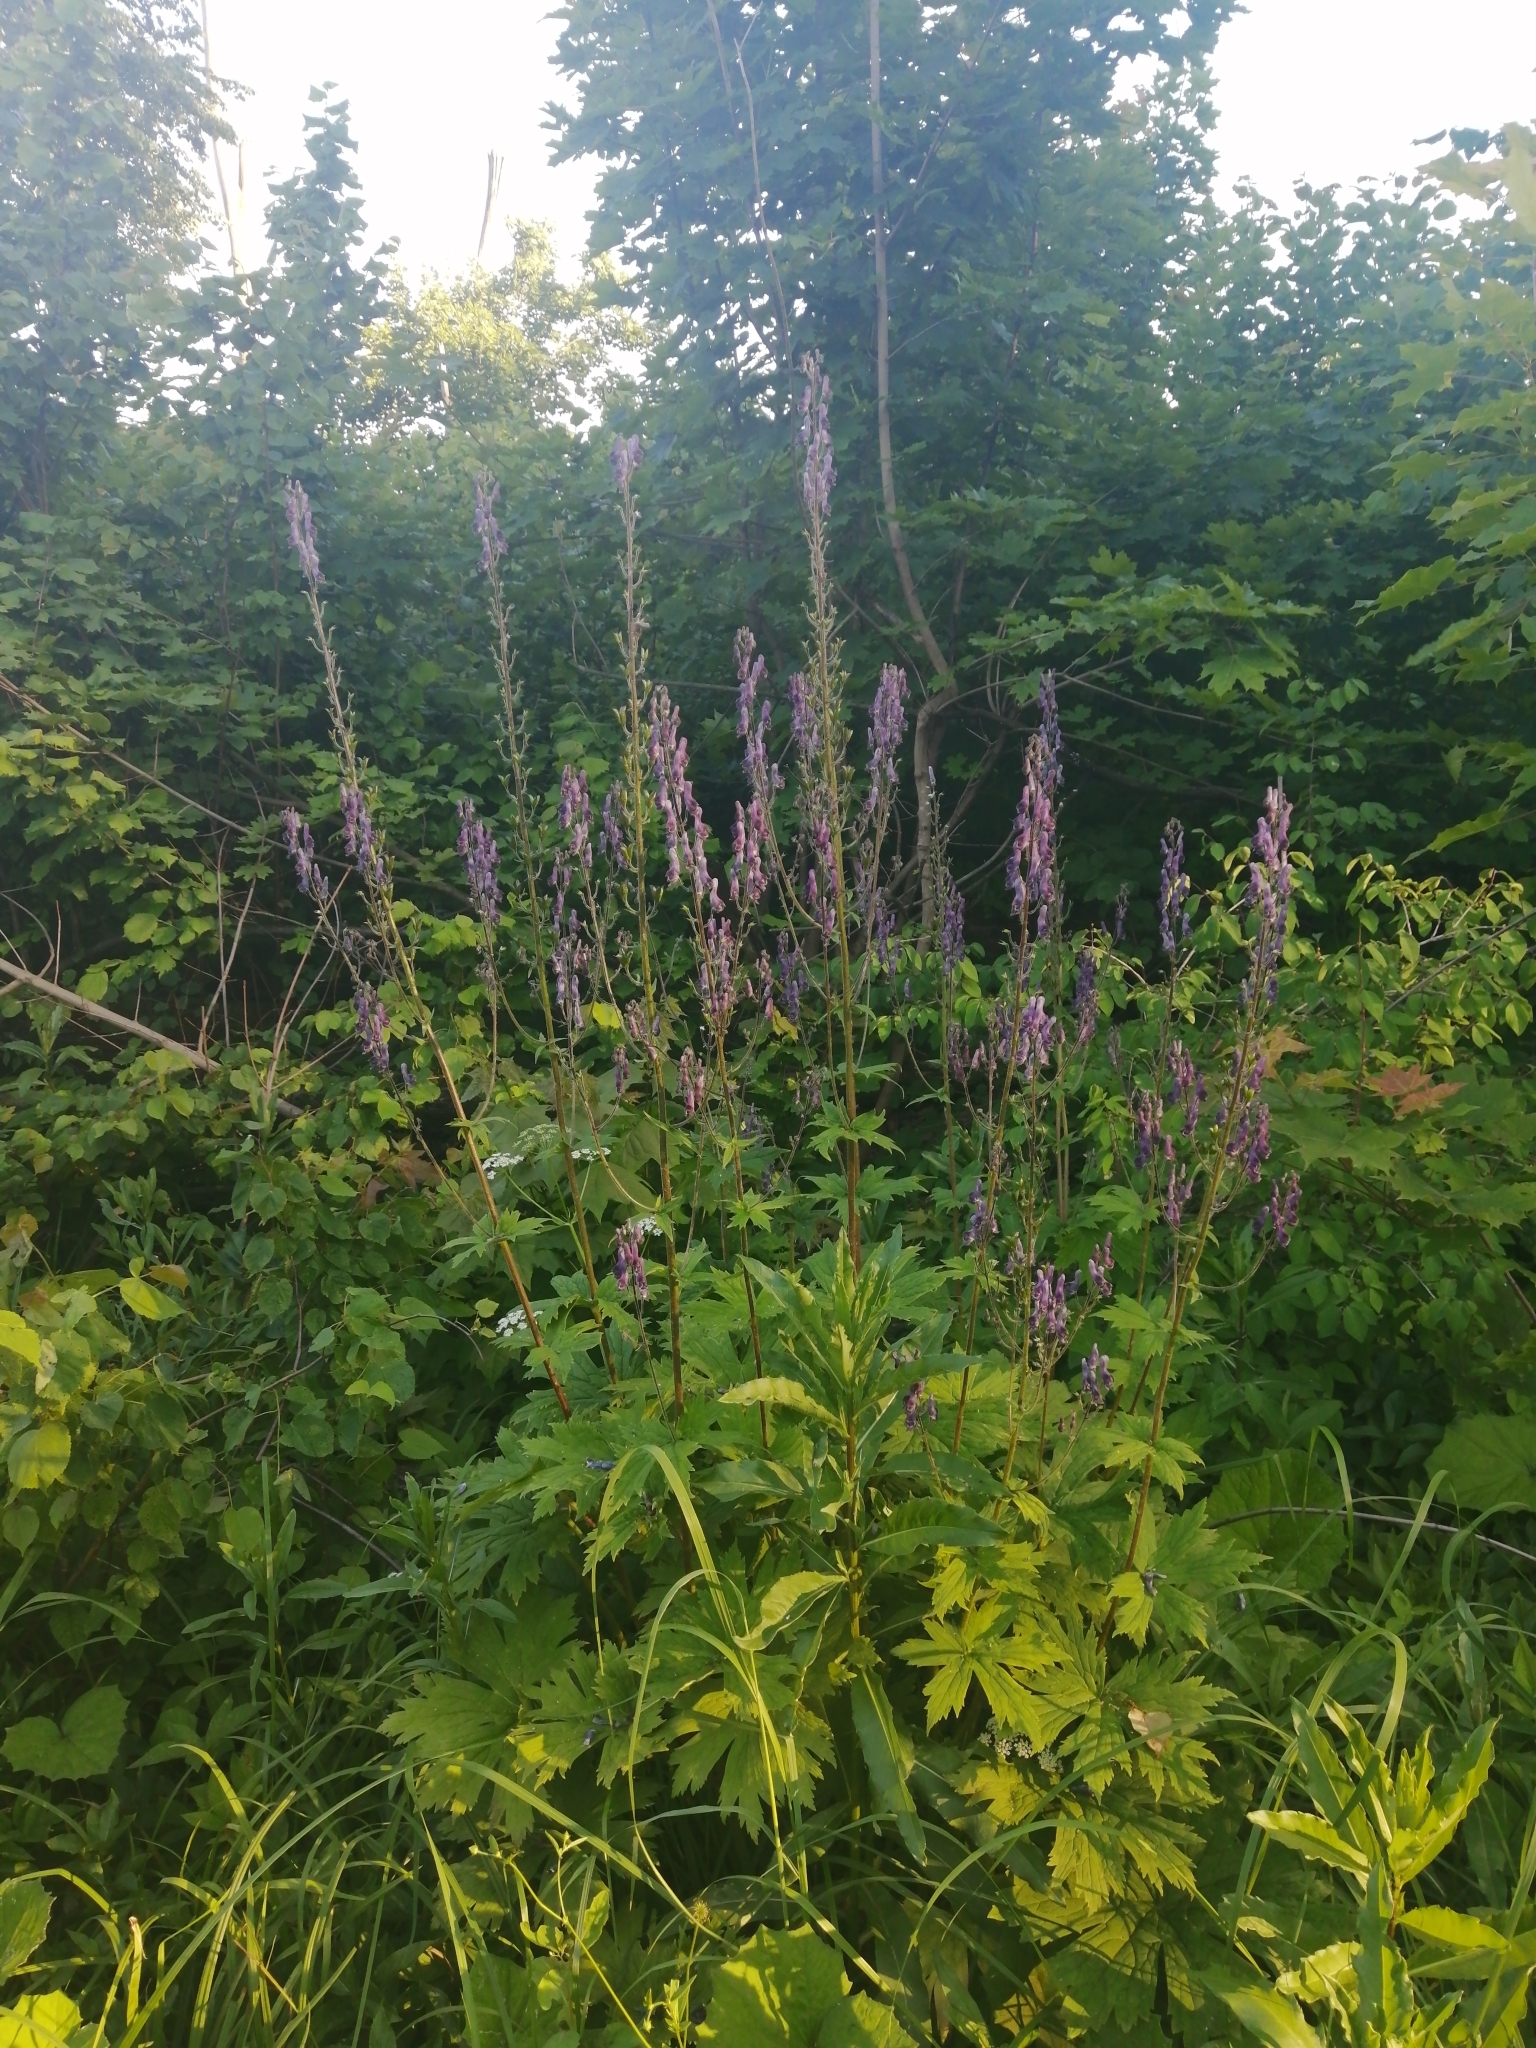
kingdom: Plantae
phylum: Tracheophyta
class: Magnoliopsida
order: Ranunculales
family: Ranunculaceae
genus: Aconitum
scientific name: Aconitum septentrionale
